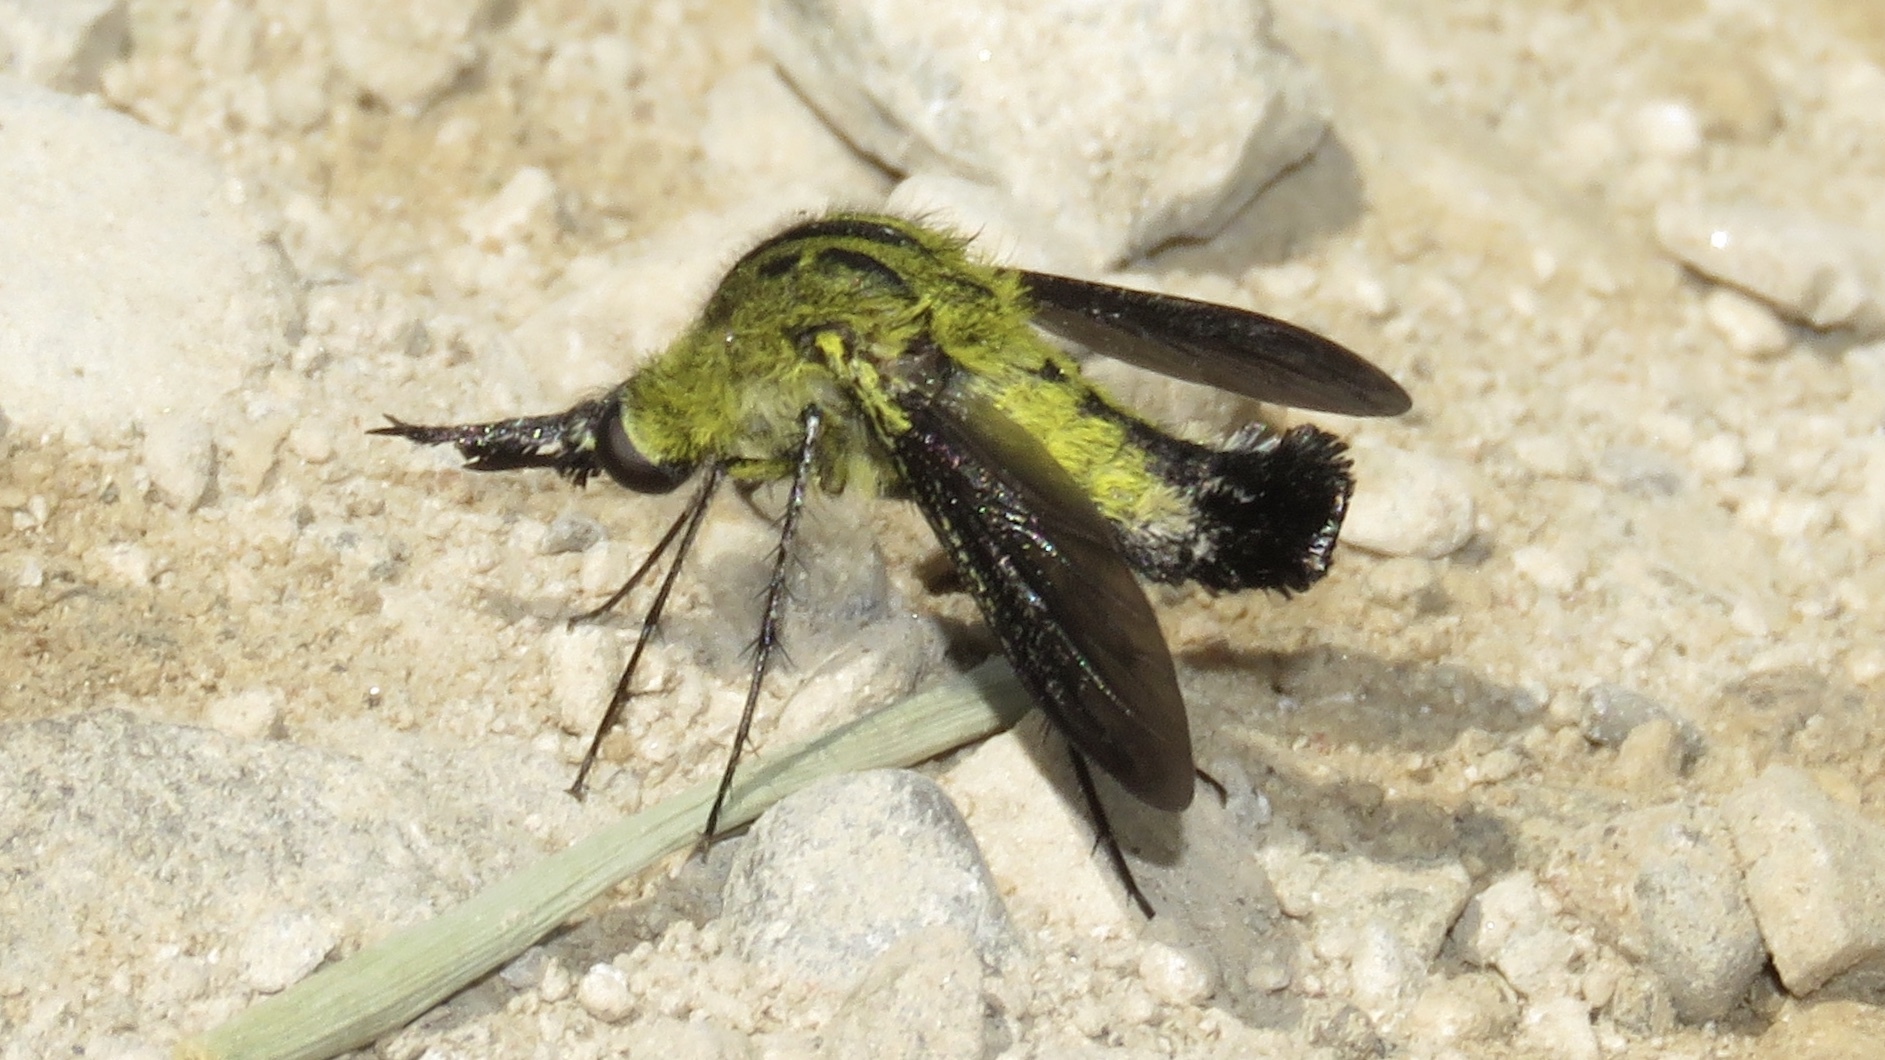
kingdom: Animalia
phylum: Arthropoda
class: Insecta
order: Diptera
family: Bombyliidae
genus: Lepidophora
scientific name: Lepidophora lutea
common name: Hunchback bee fly
